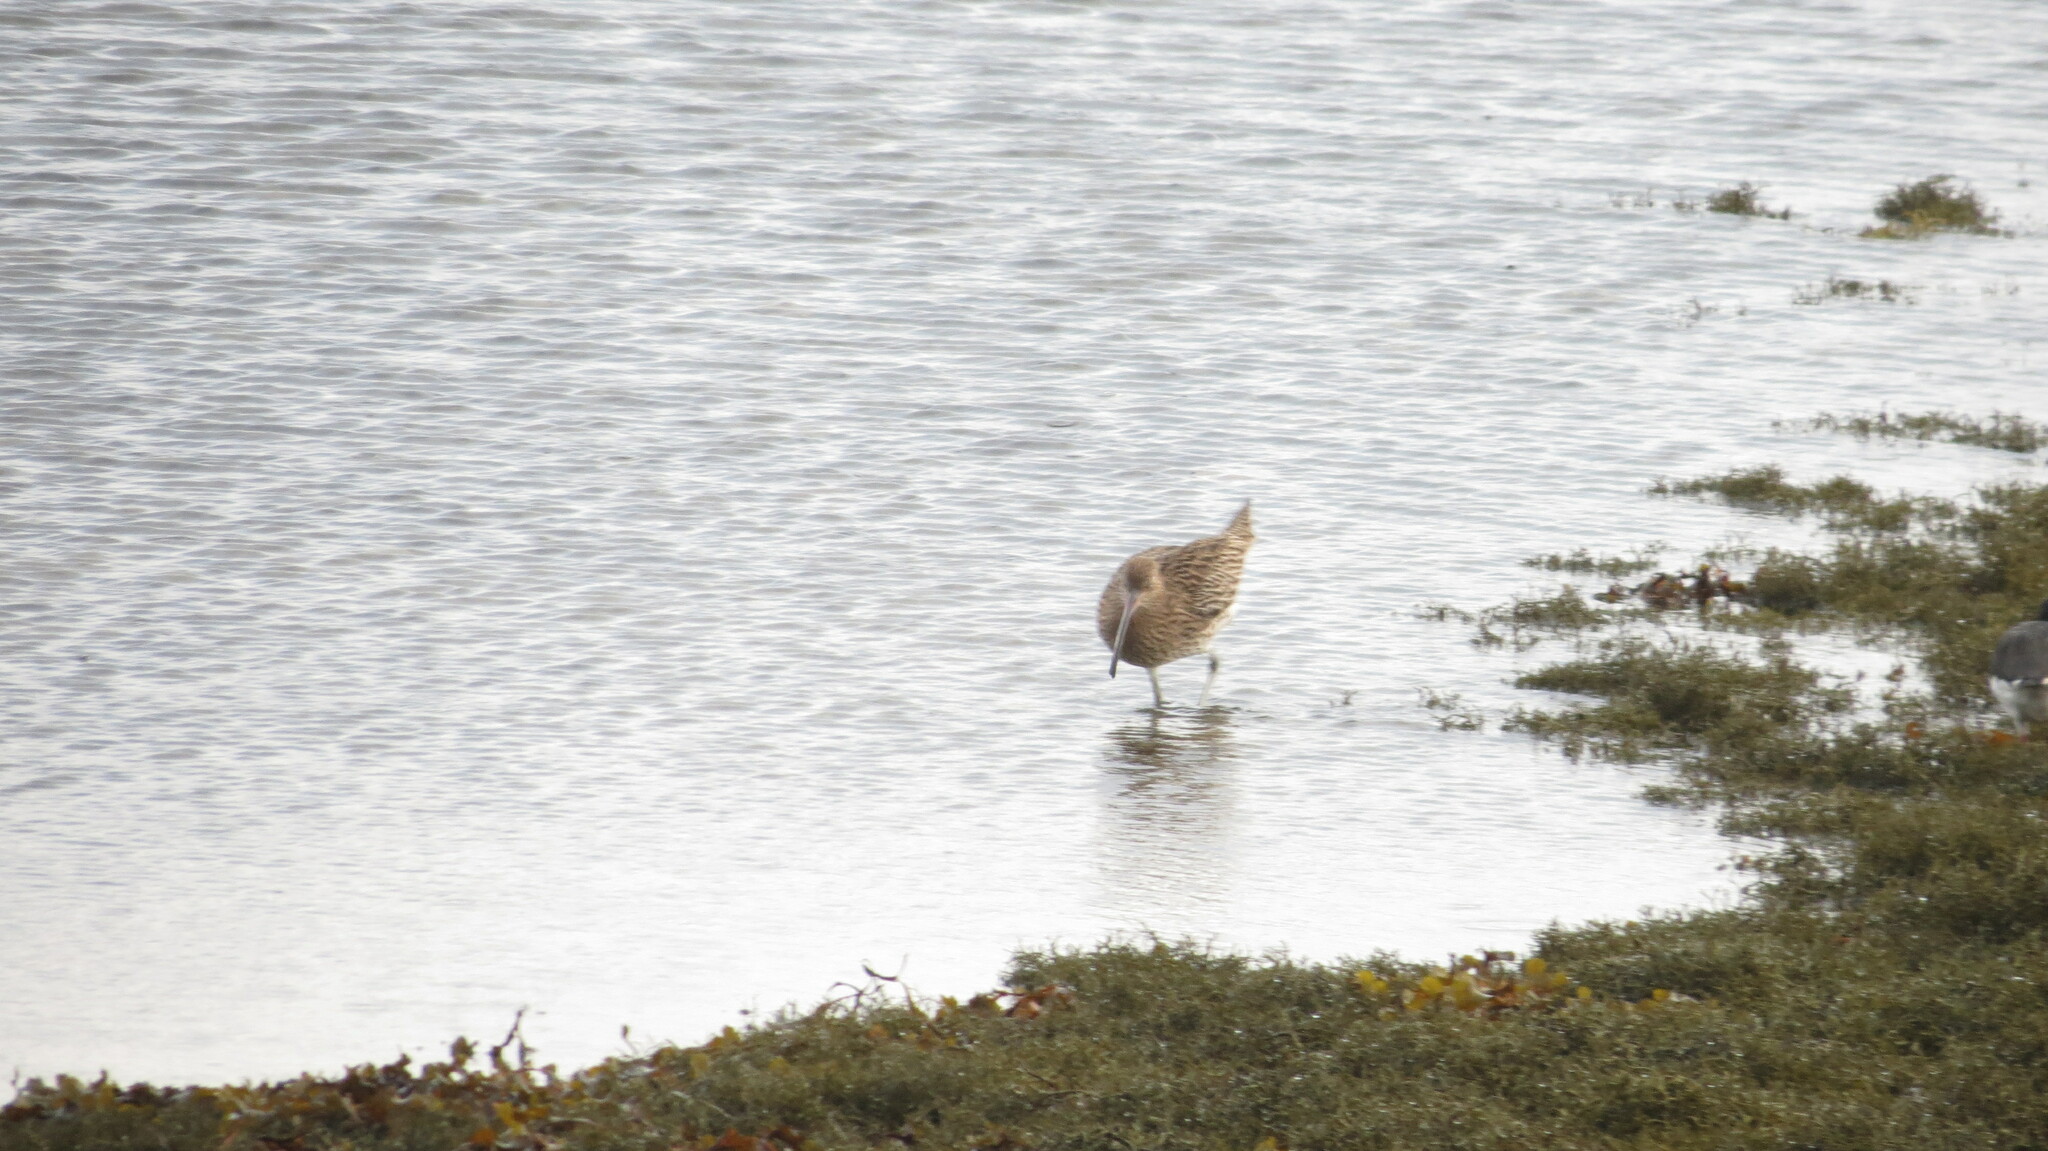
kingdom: Animalia
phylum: Chordata
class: Aves
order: Charadriiformes
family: Scolopacidae
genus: Numenius
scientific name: Numenius arquata
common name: Eurasian curlew
